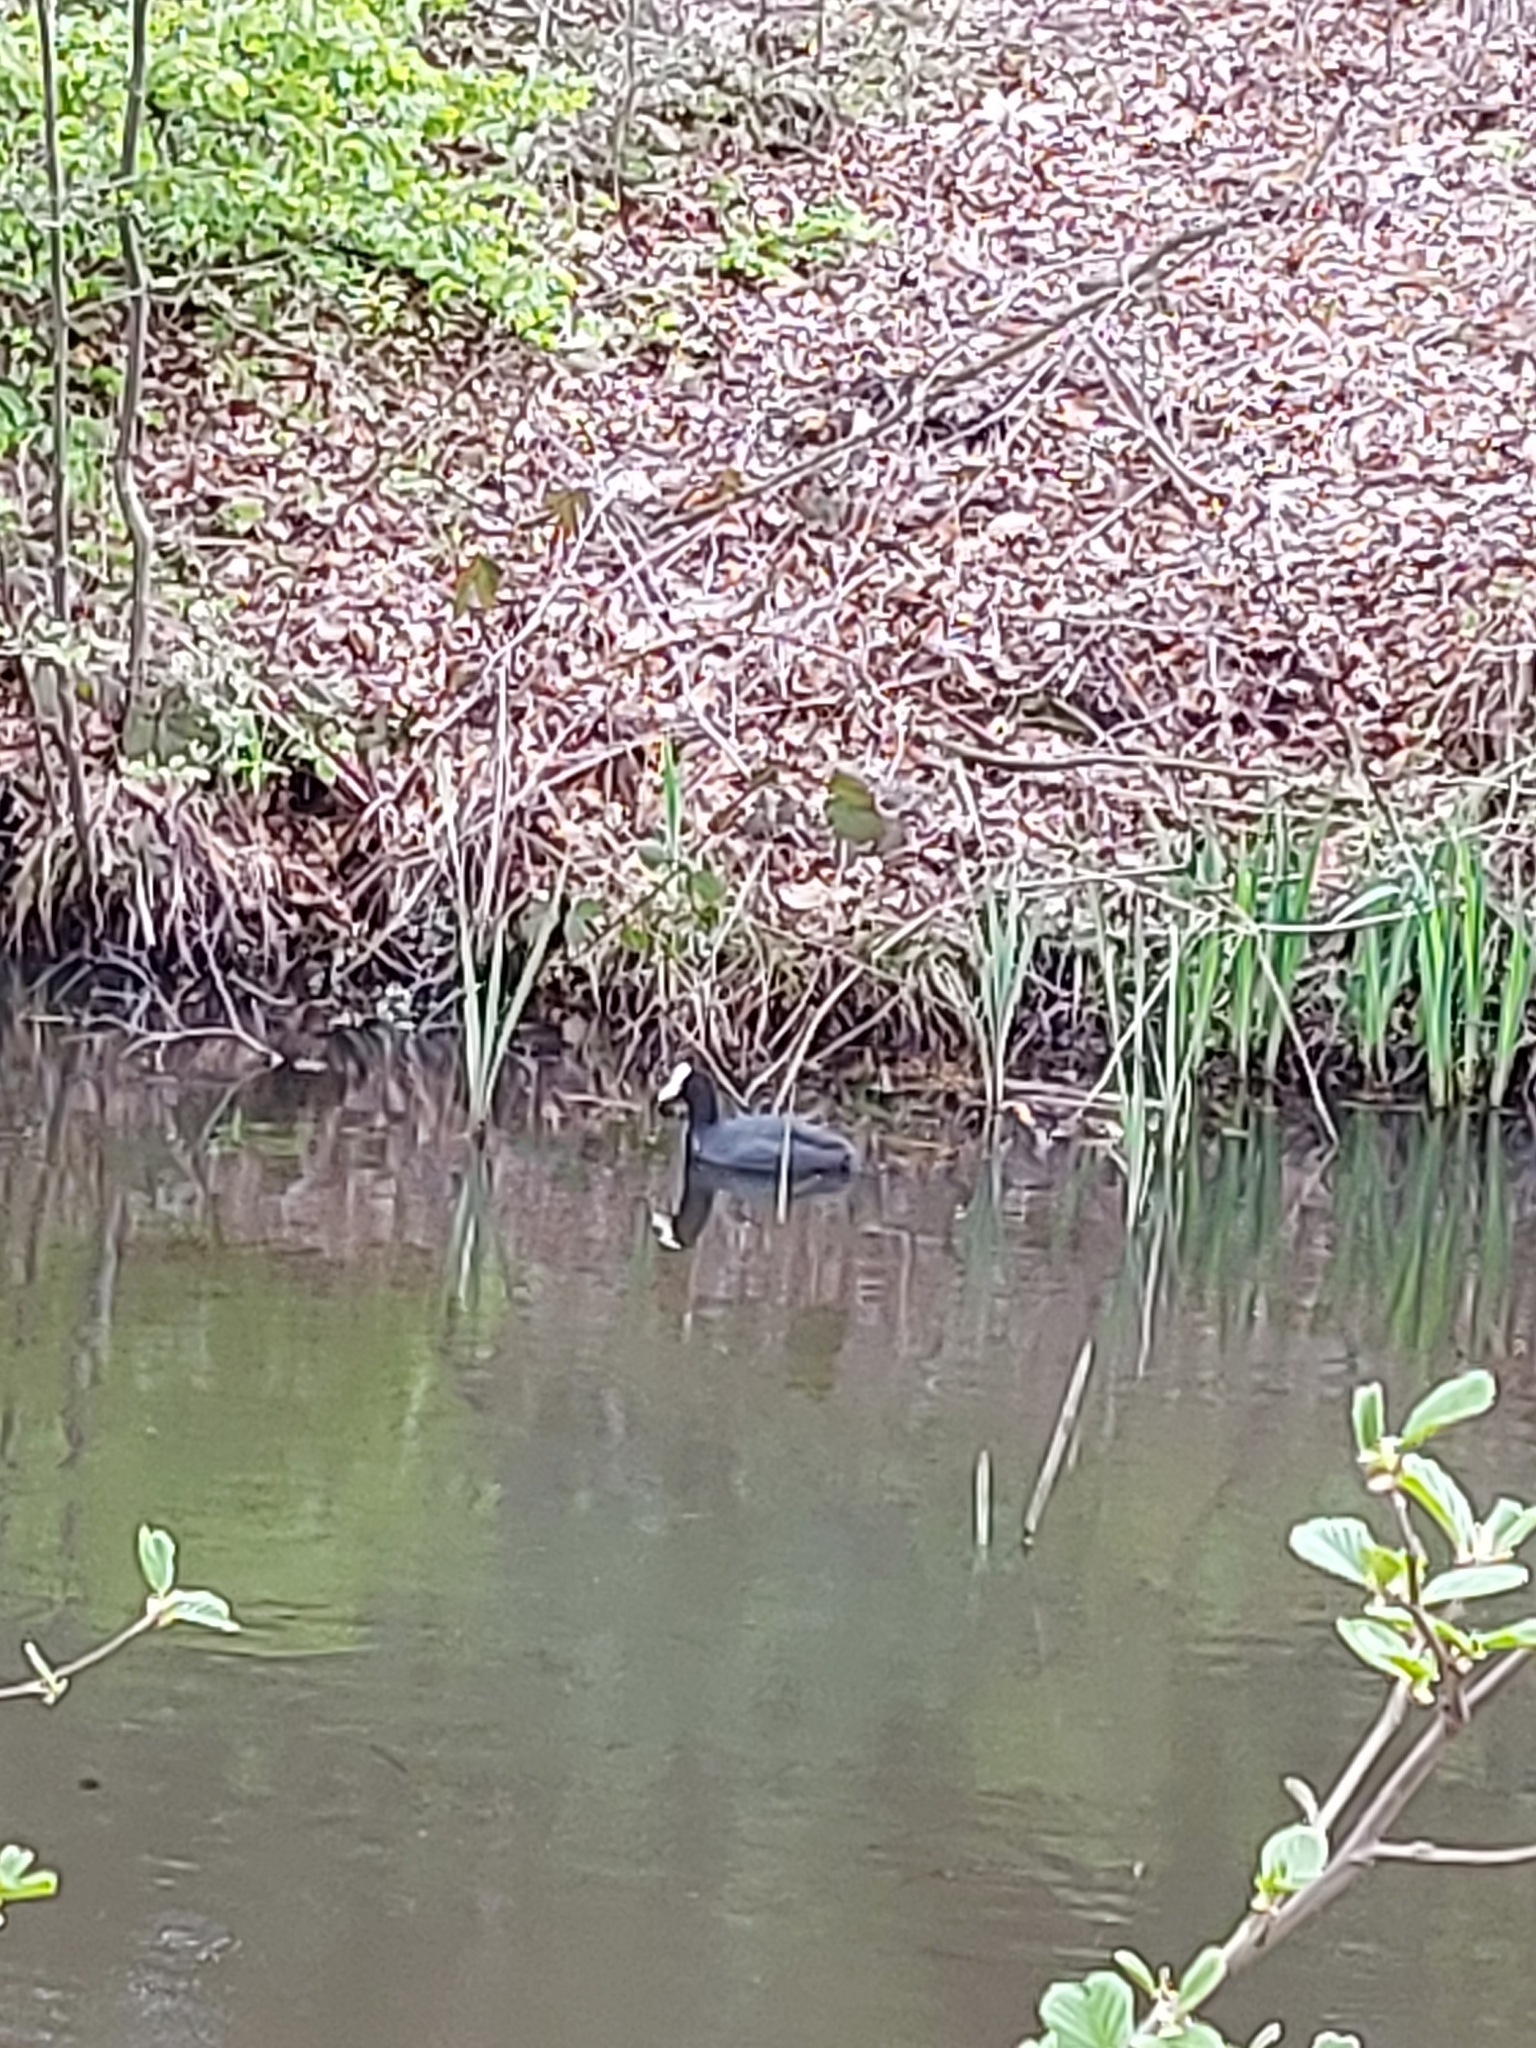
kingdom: Animalia
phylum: Chordata
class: Aves
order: Gruiformes
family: Rallidae
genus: Fulica
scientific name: Fulica atra
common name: Eurasian coot
